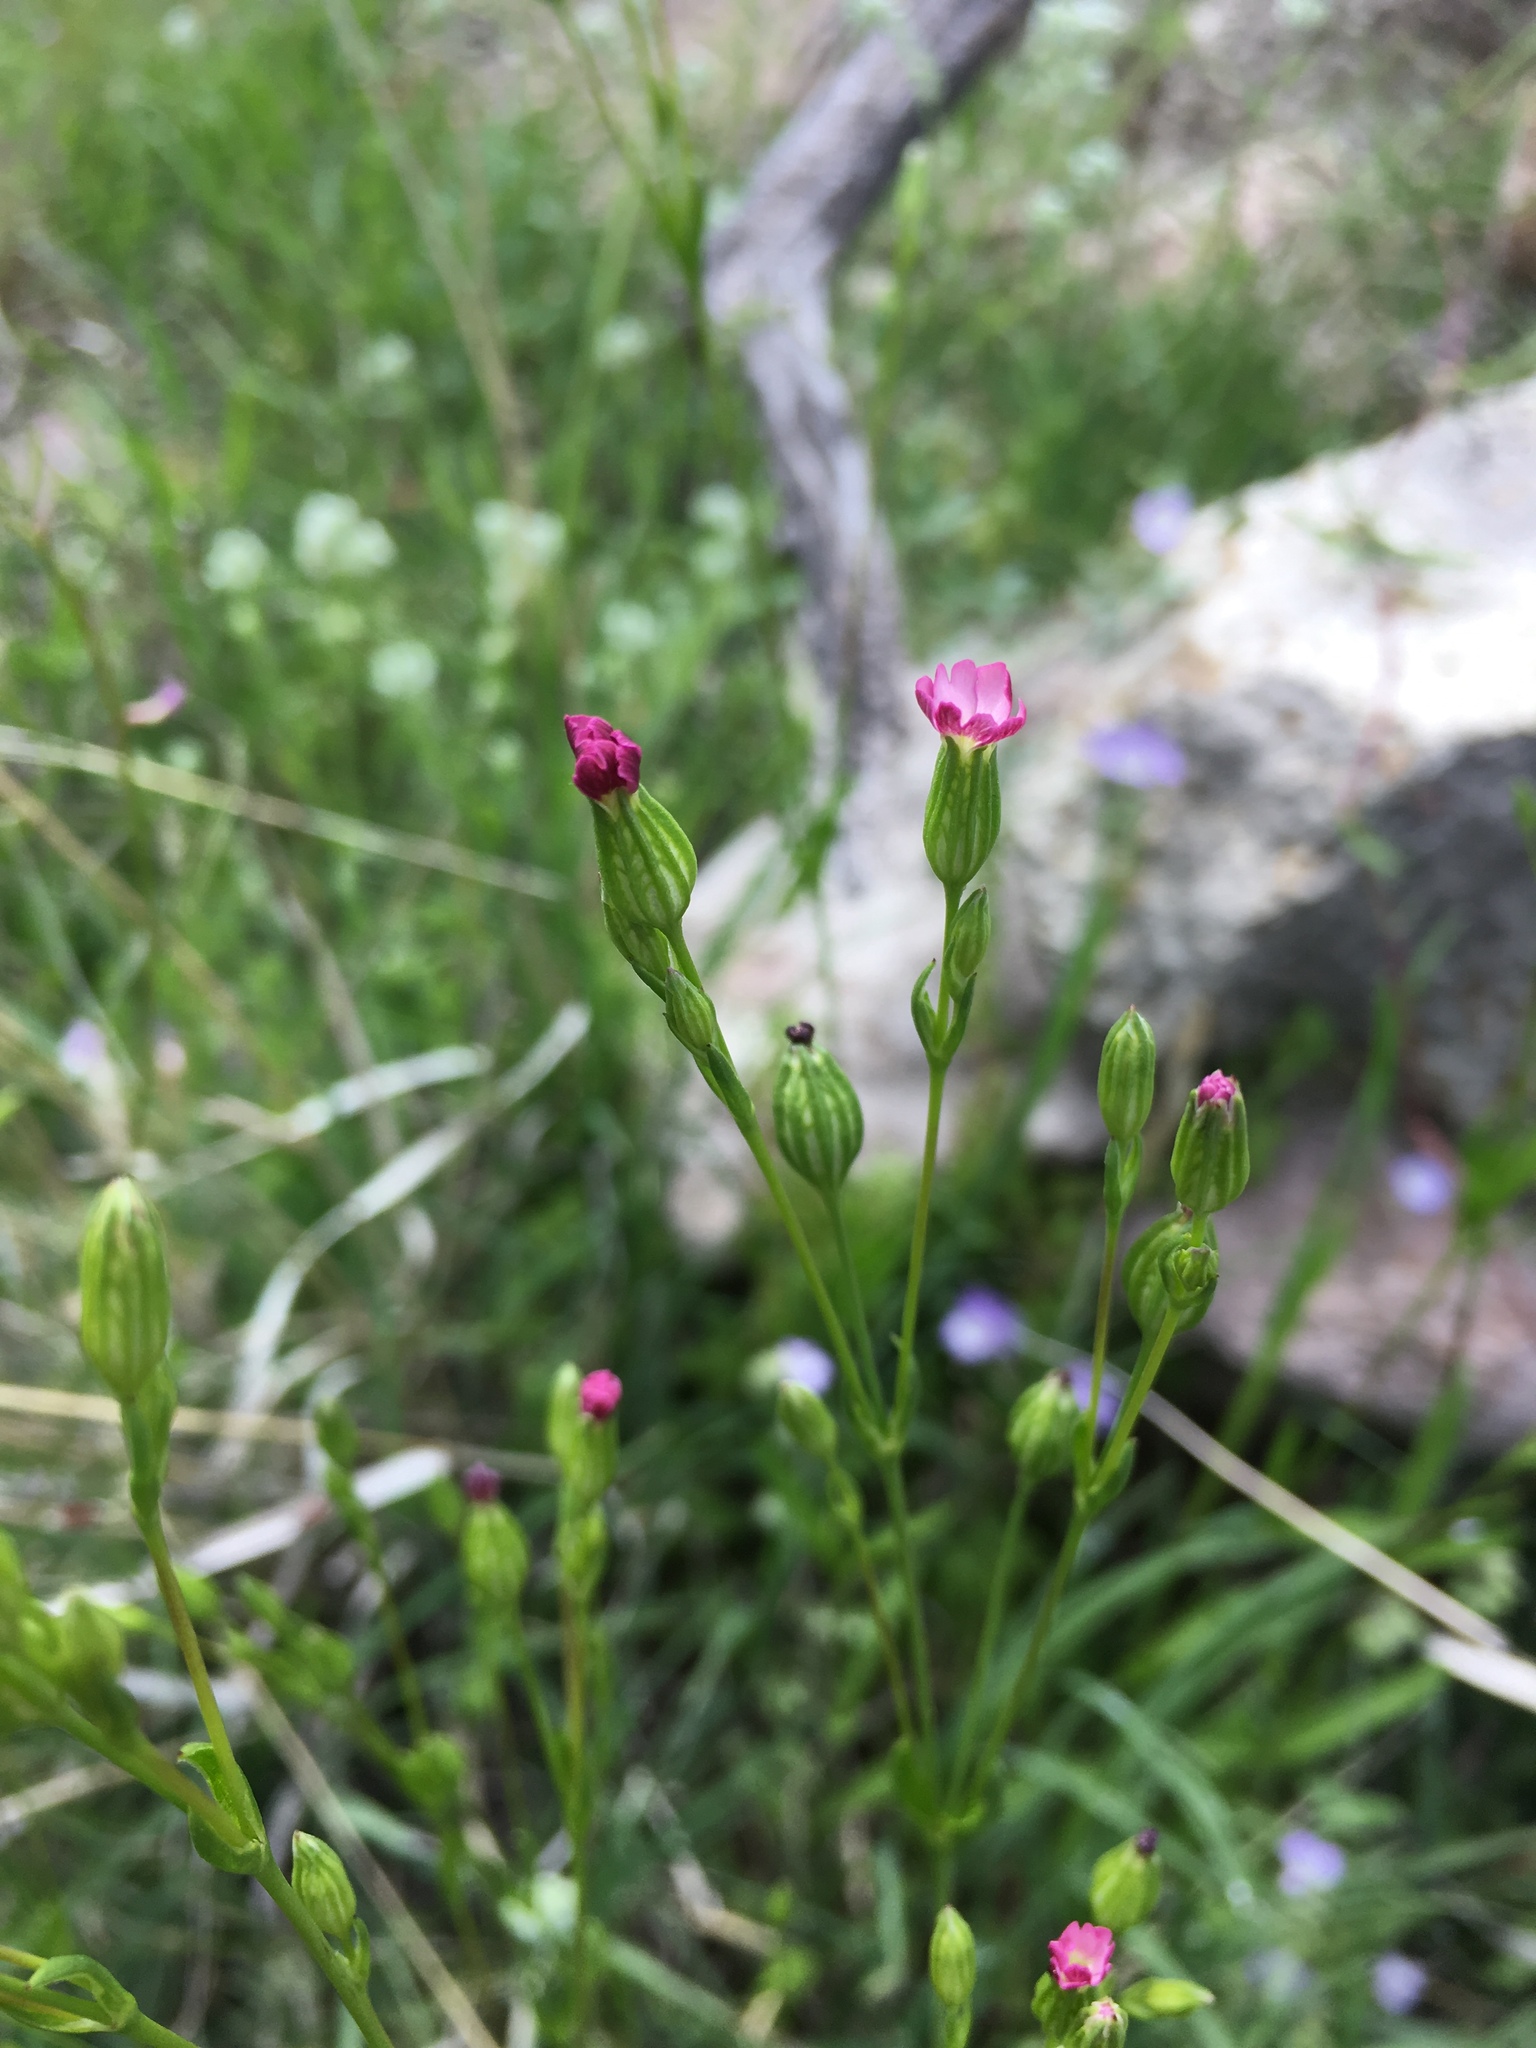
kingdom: Plantae
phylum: Tracheophyta
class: Magnoliopsida
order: Caryophyllales
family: Caryophyllaceae
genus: Silene
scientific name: Silene antirrhina
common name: Sleepy catchfly
